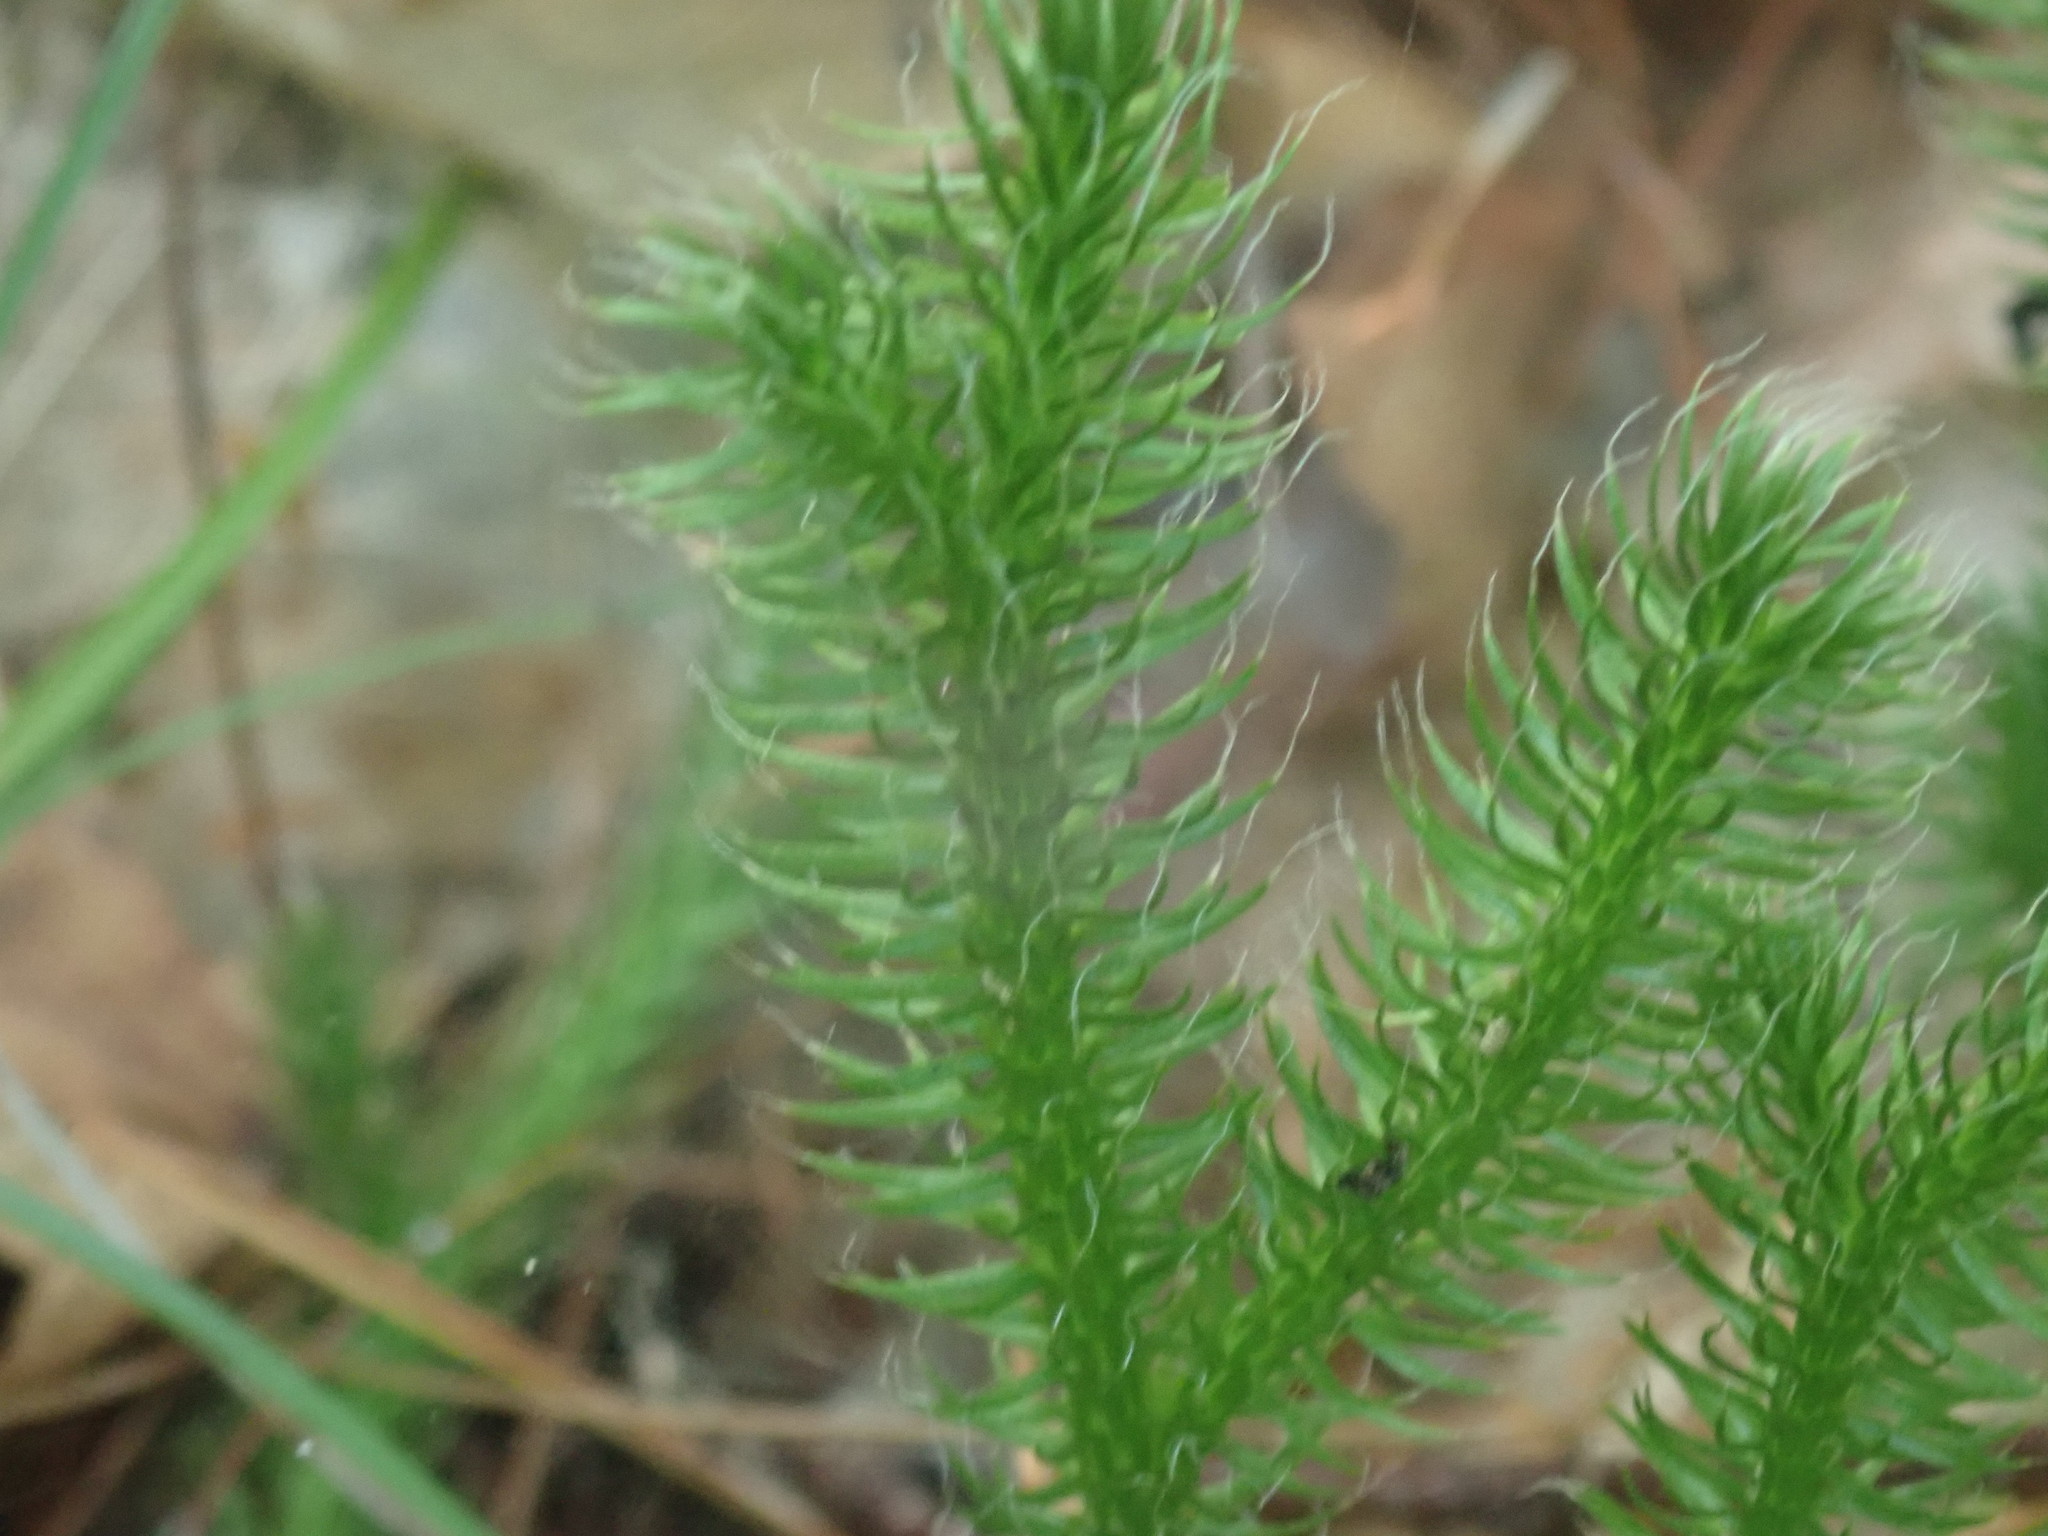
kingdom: Plantae
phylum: Tracheophyta
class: Lycopodiopsida
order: Lycopodiales
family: Lycopodiaceae
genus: Lycopodium
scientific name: Lycopodium clavatum
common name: Stag's-horn clubmoss
